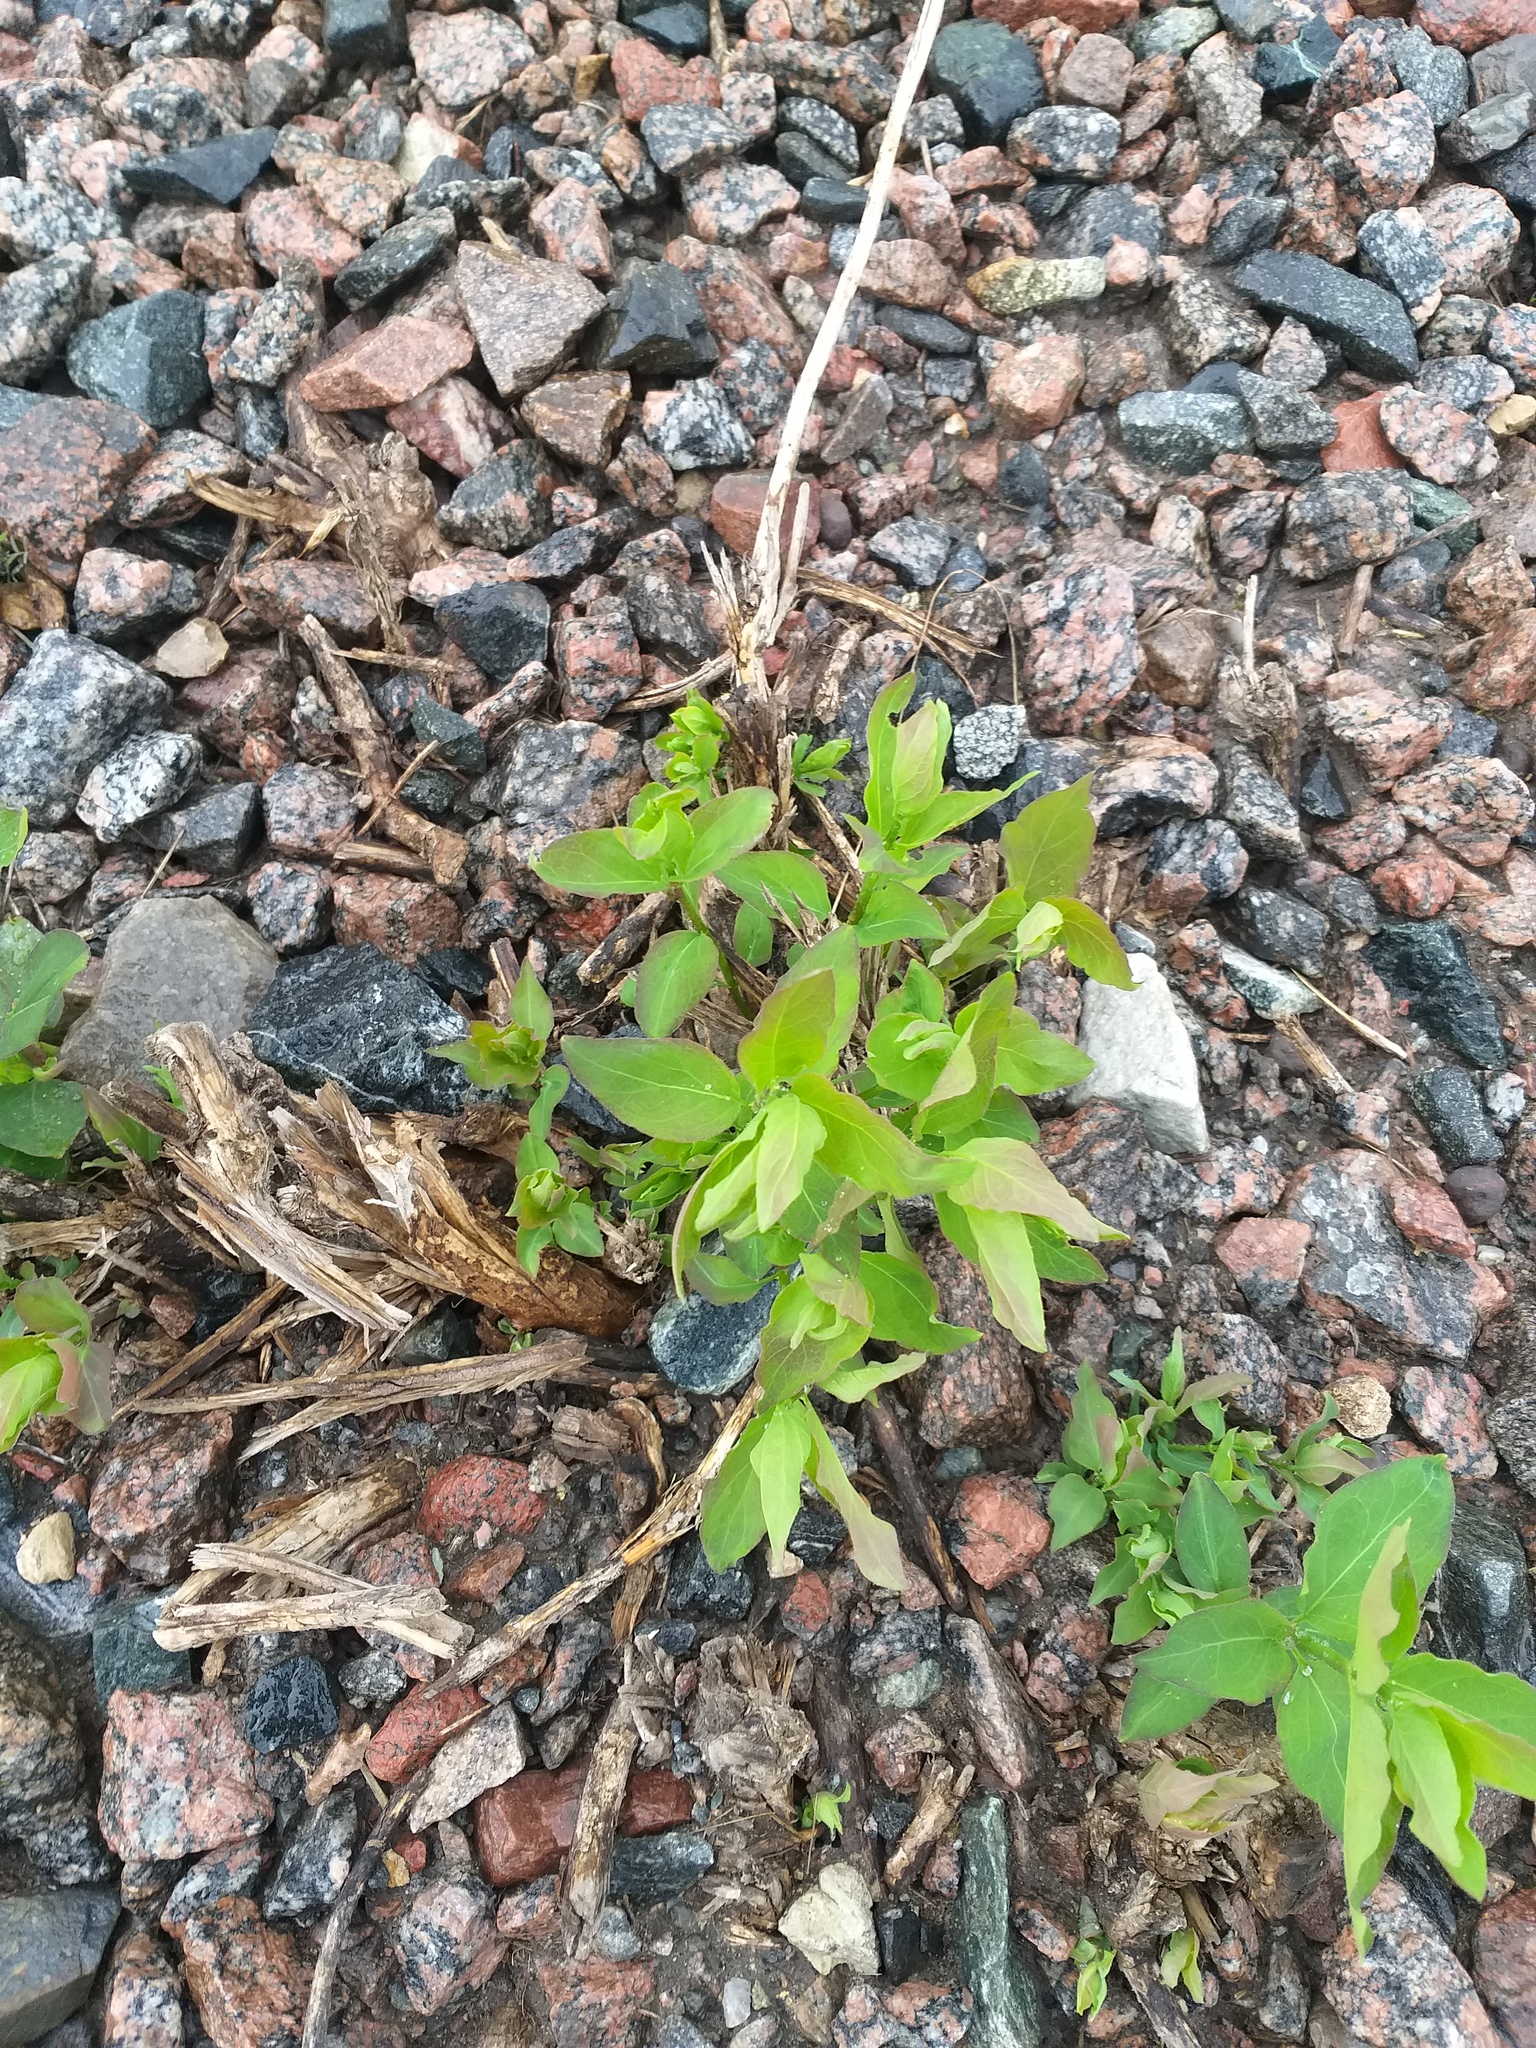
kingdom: Plantae
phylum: Tracheophyta
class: Magnoliopsida
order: Dipsacales
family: Caprifoliaceae
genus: Lonicera
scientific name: Lonicera tatarica
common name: Tatarian honeysuckle
